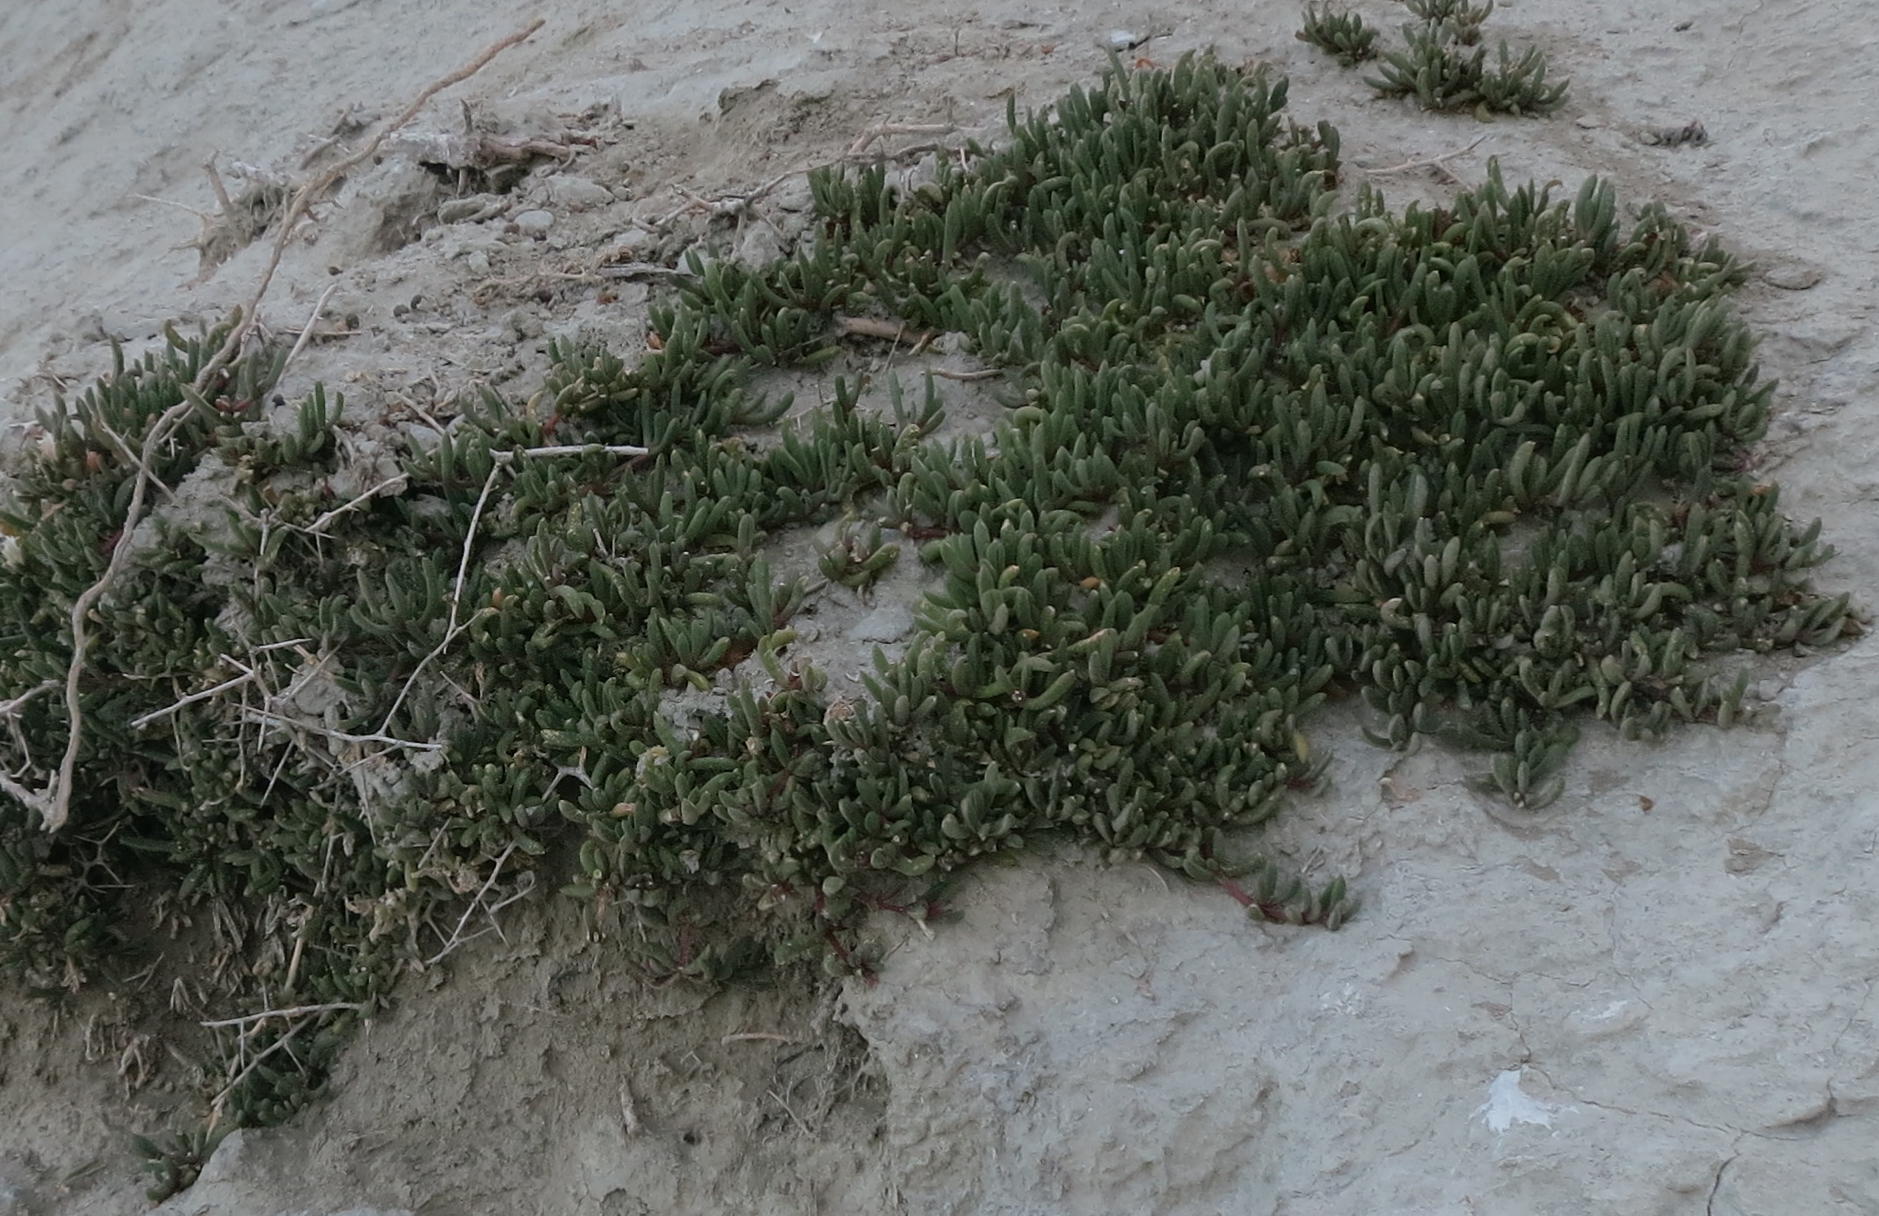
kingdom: Plantae
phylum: Tracheophyta
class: Magnoliopsida
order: Caryophyllales
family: Aizoaceae
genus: Disphyma
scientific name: Disphyma australe
